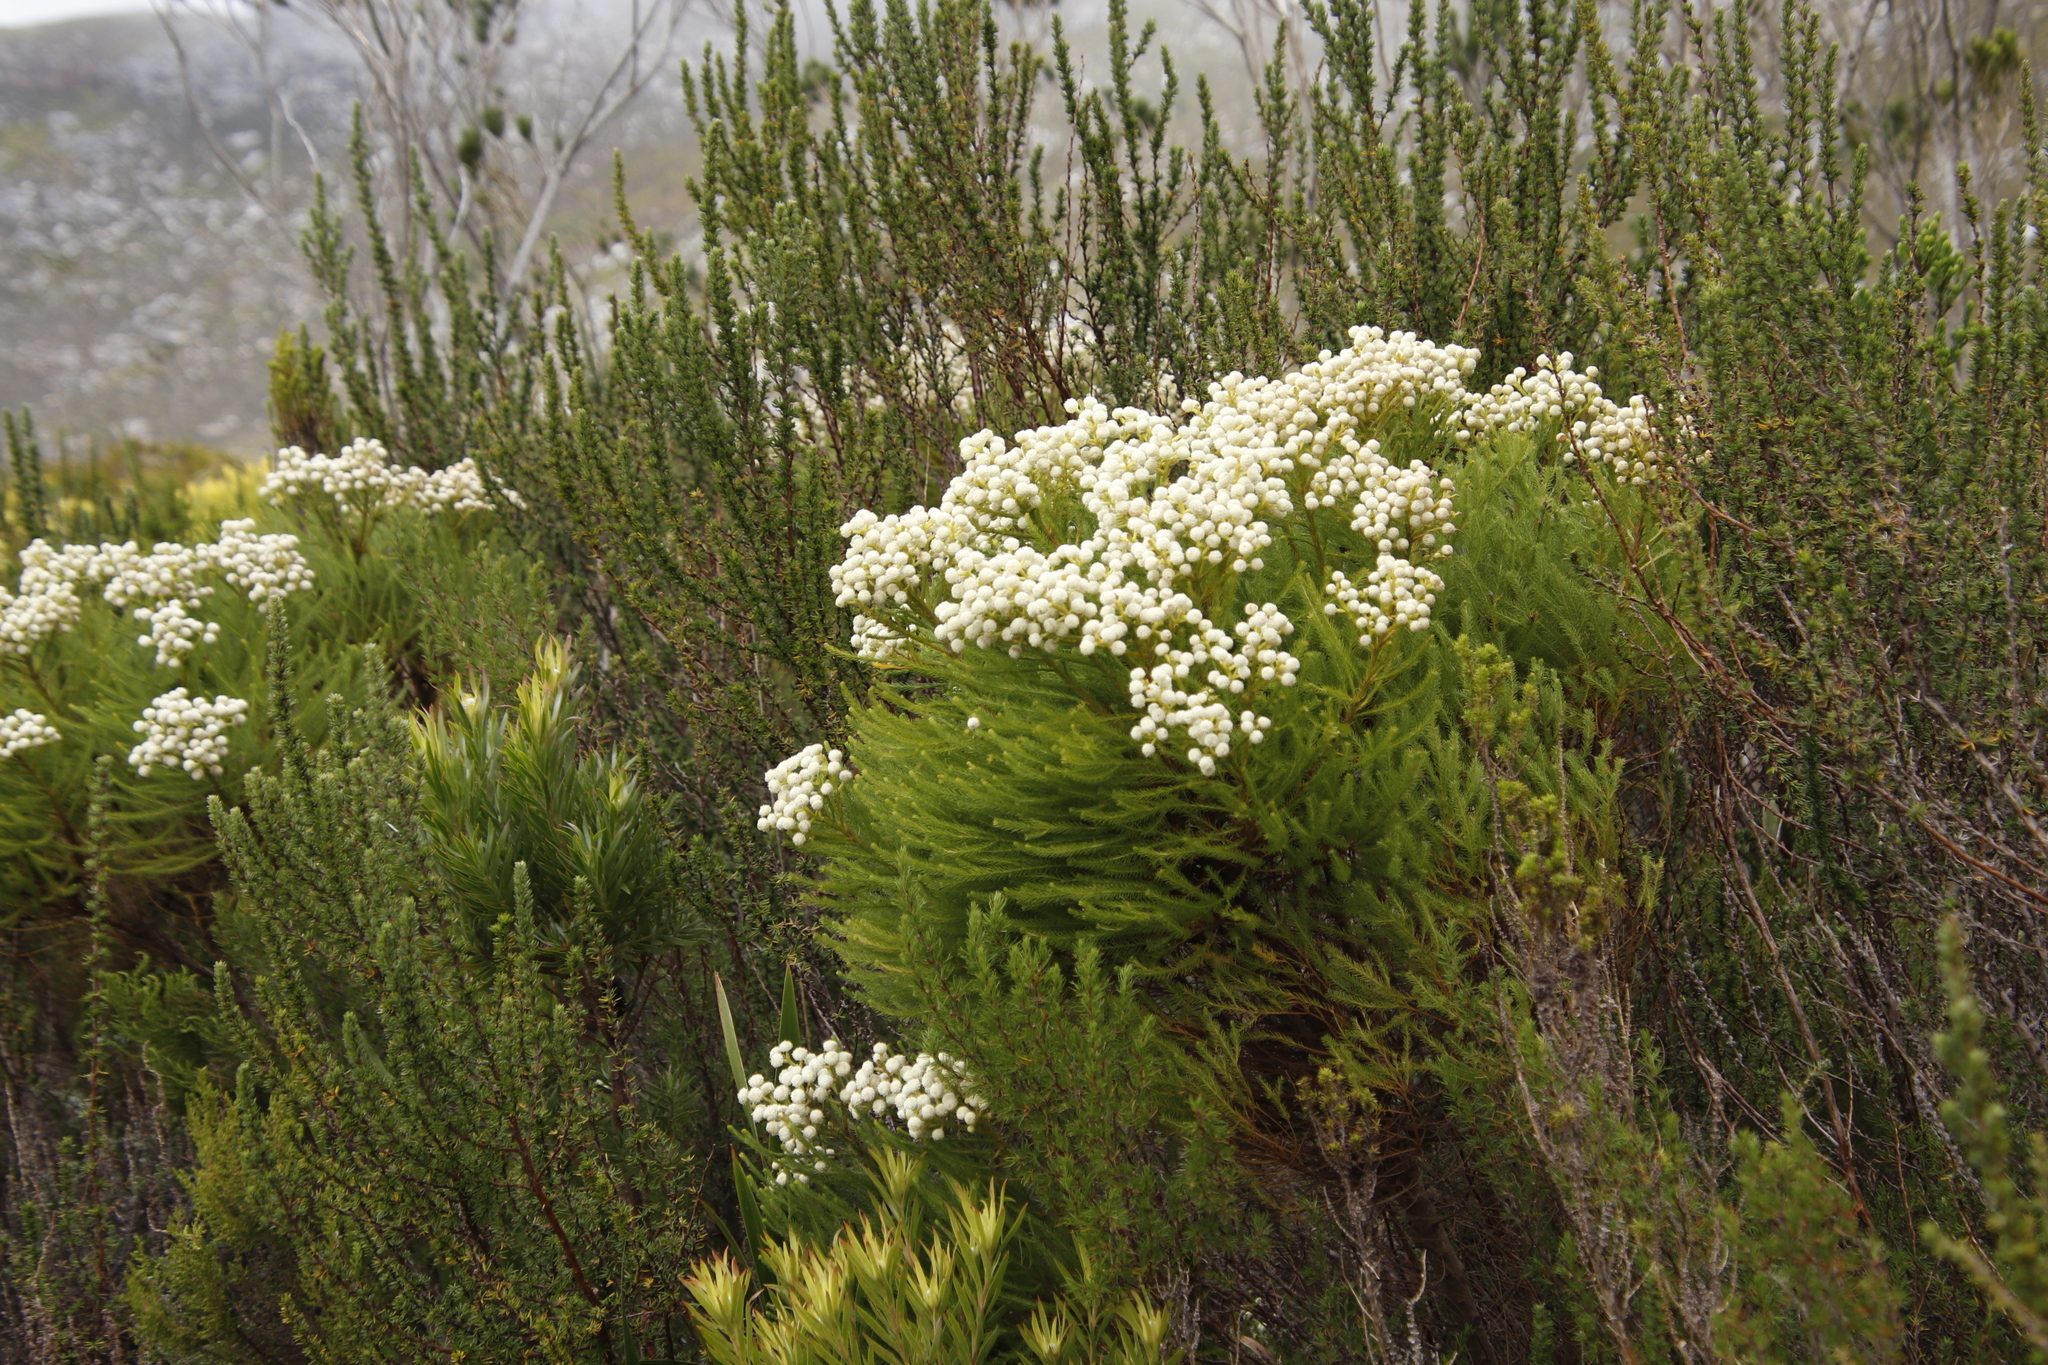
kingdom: Plantae
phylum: Tracheophyta
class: Magnoliopsida
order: Bruniales
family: Bruniaceae
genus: Berzelia
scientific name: Berzelia lanuginosa
